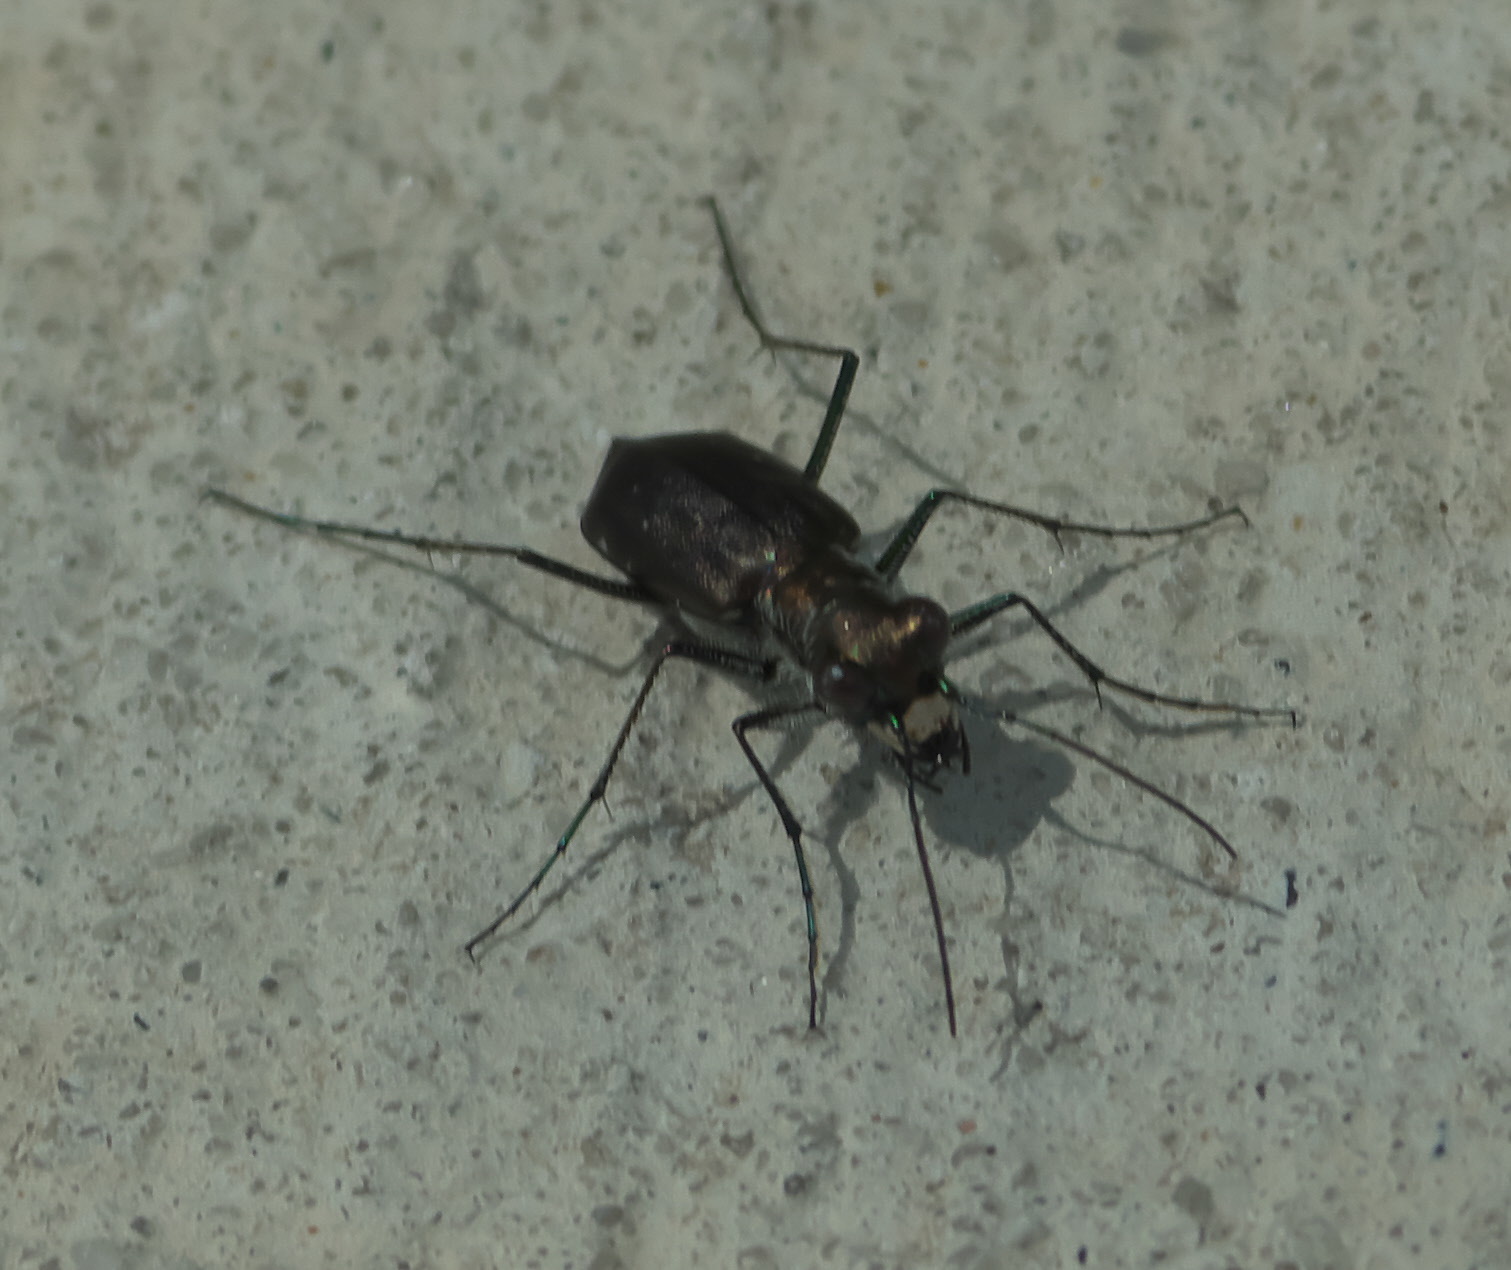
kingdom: Animalia
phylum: Arthropoda
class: Insecta
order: Coleoptera
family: Carabidae
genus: Cicindela
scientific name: Cicindela punctulata
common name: Punctured tiger beetle
